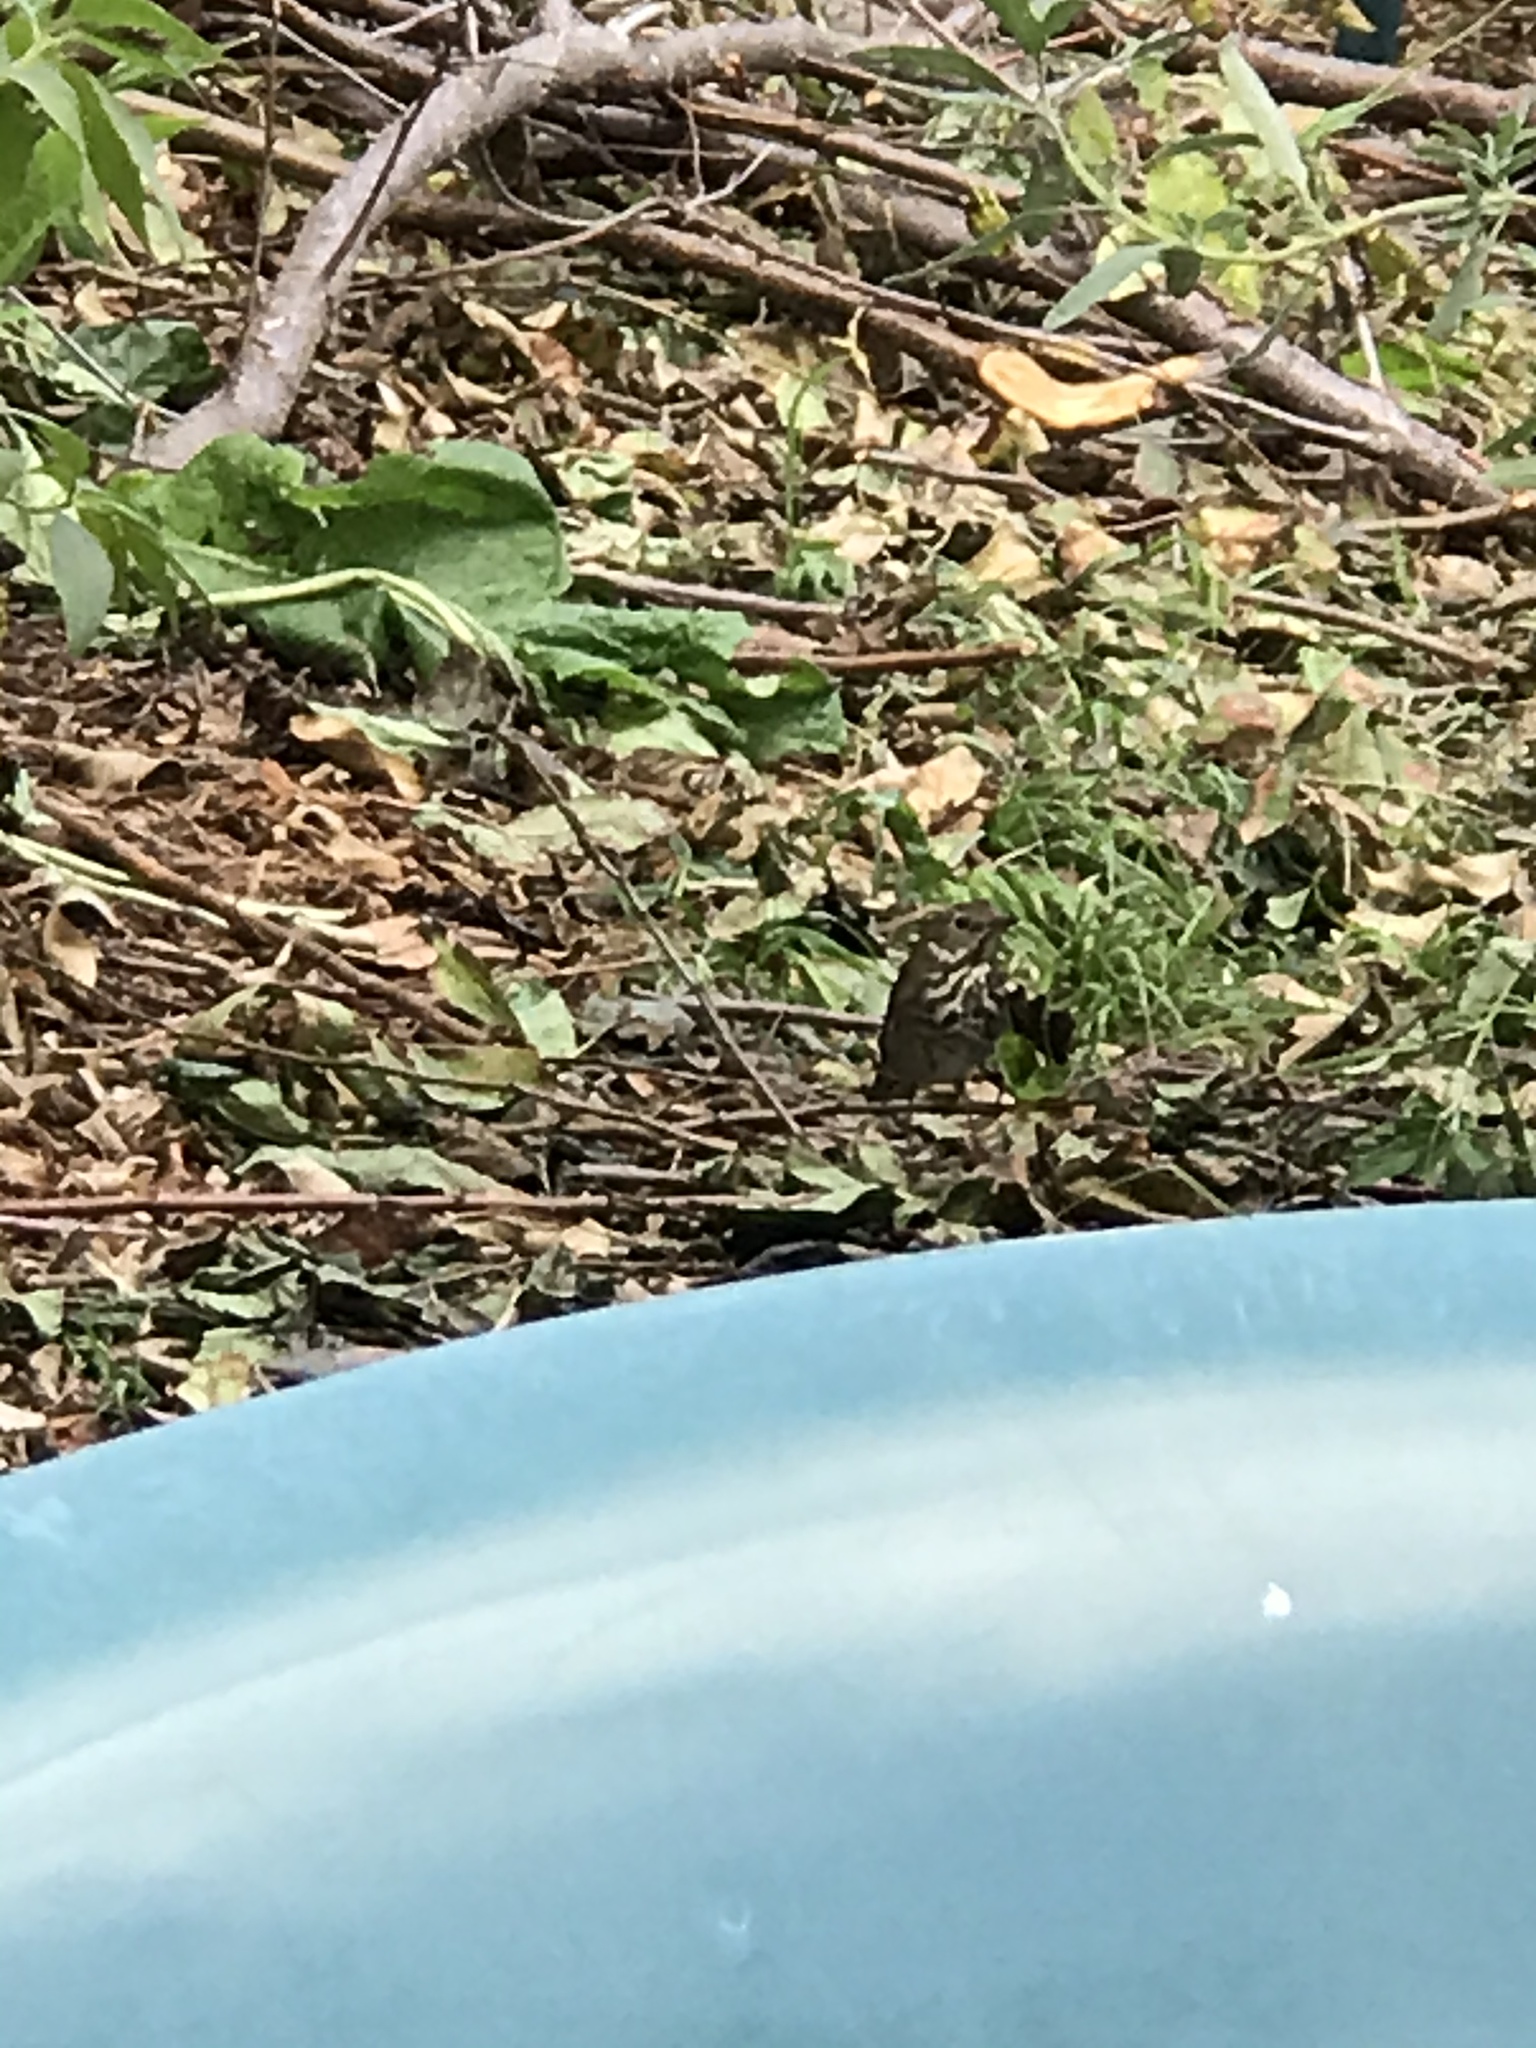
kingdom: Animalia
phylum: Chordata
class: Aves
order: Passeriformes
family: Turdidae
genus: Catharus
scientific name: Catharus guttatus
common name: Hermit thrush
